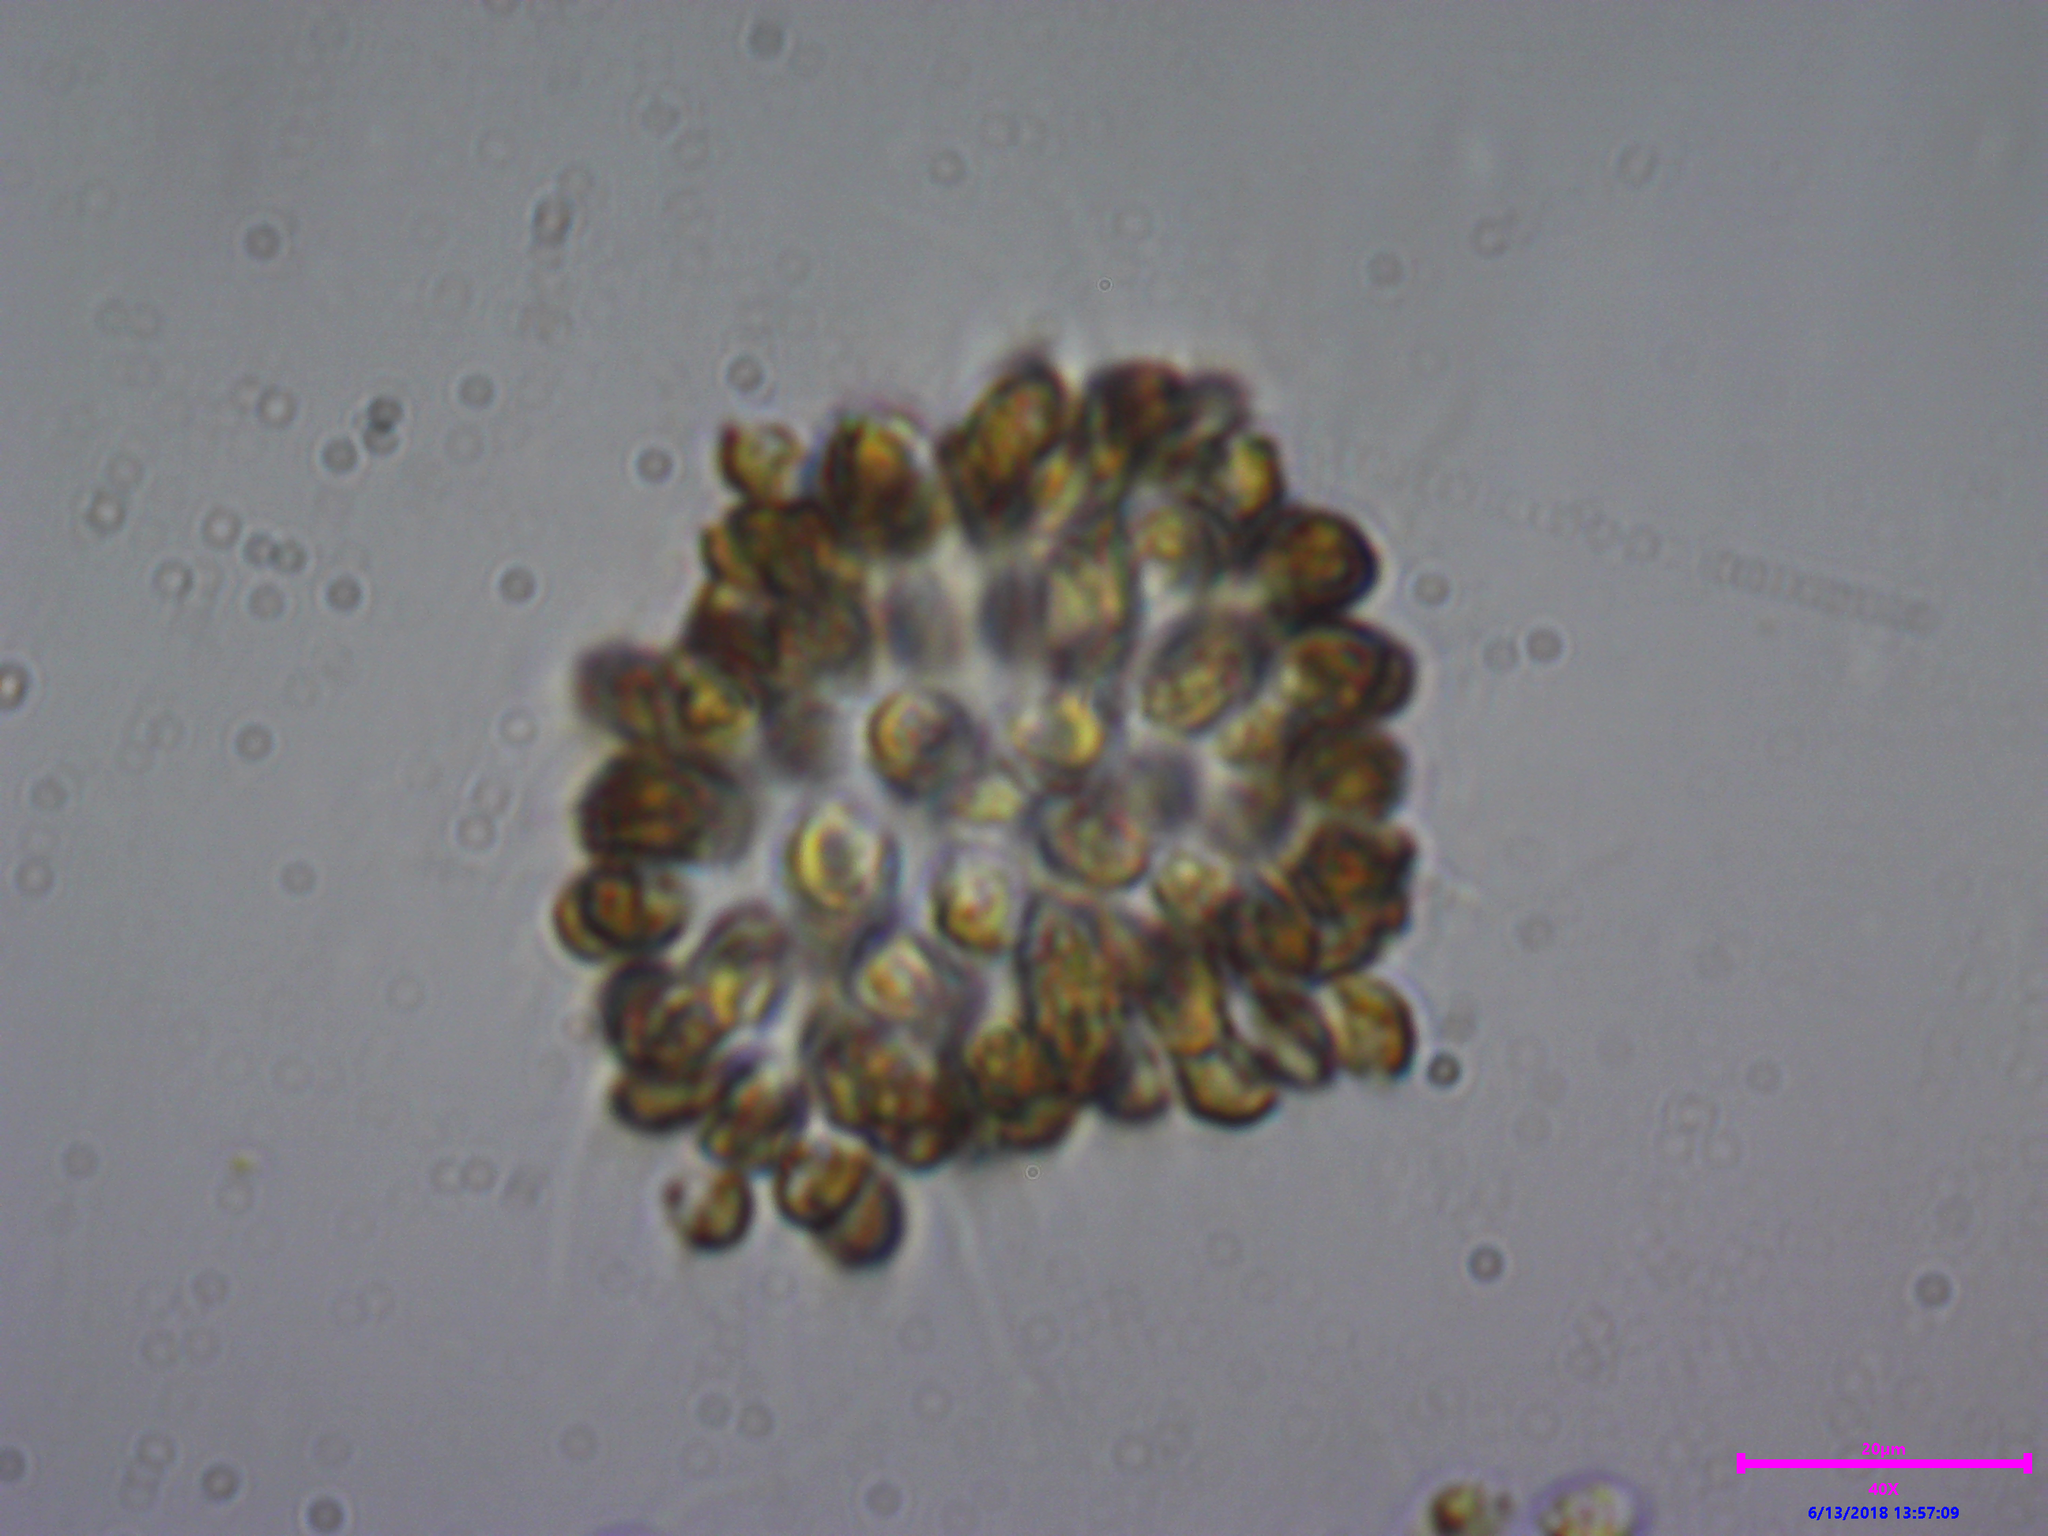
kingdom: Chromista
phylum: Ochrophyta
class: Synurophyceae
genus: Synura
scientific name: Synura
